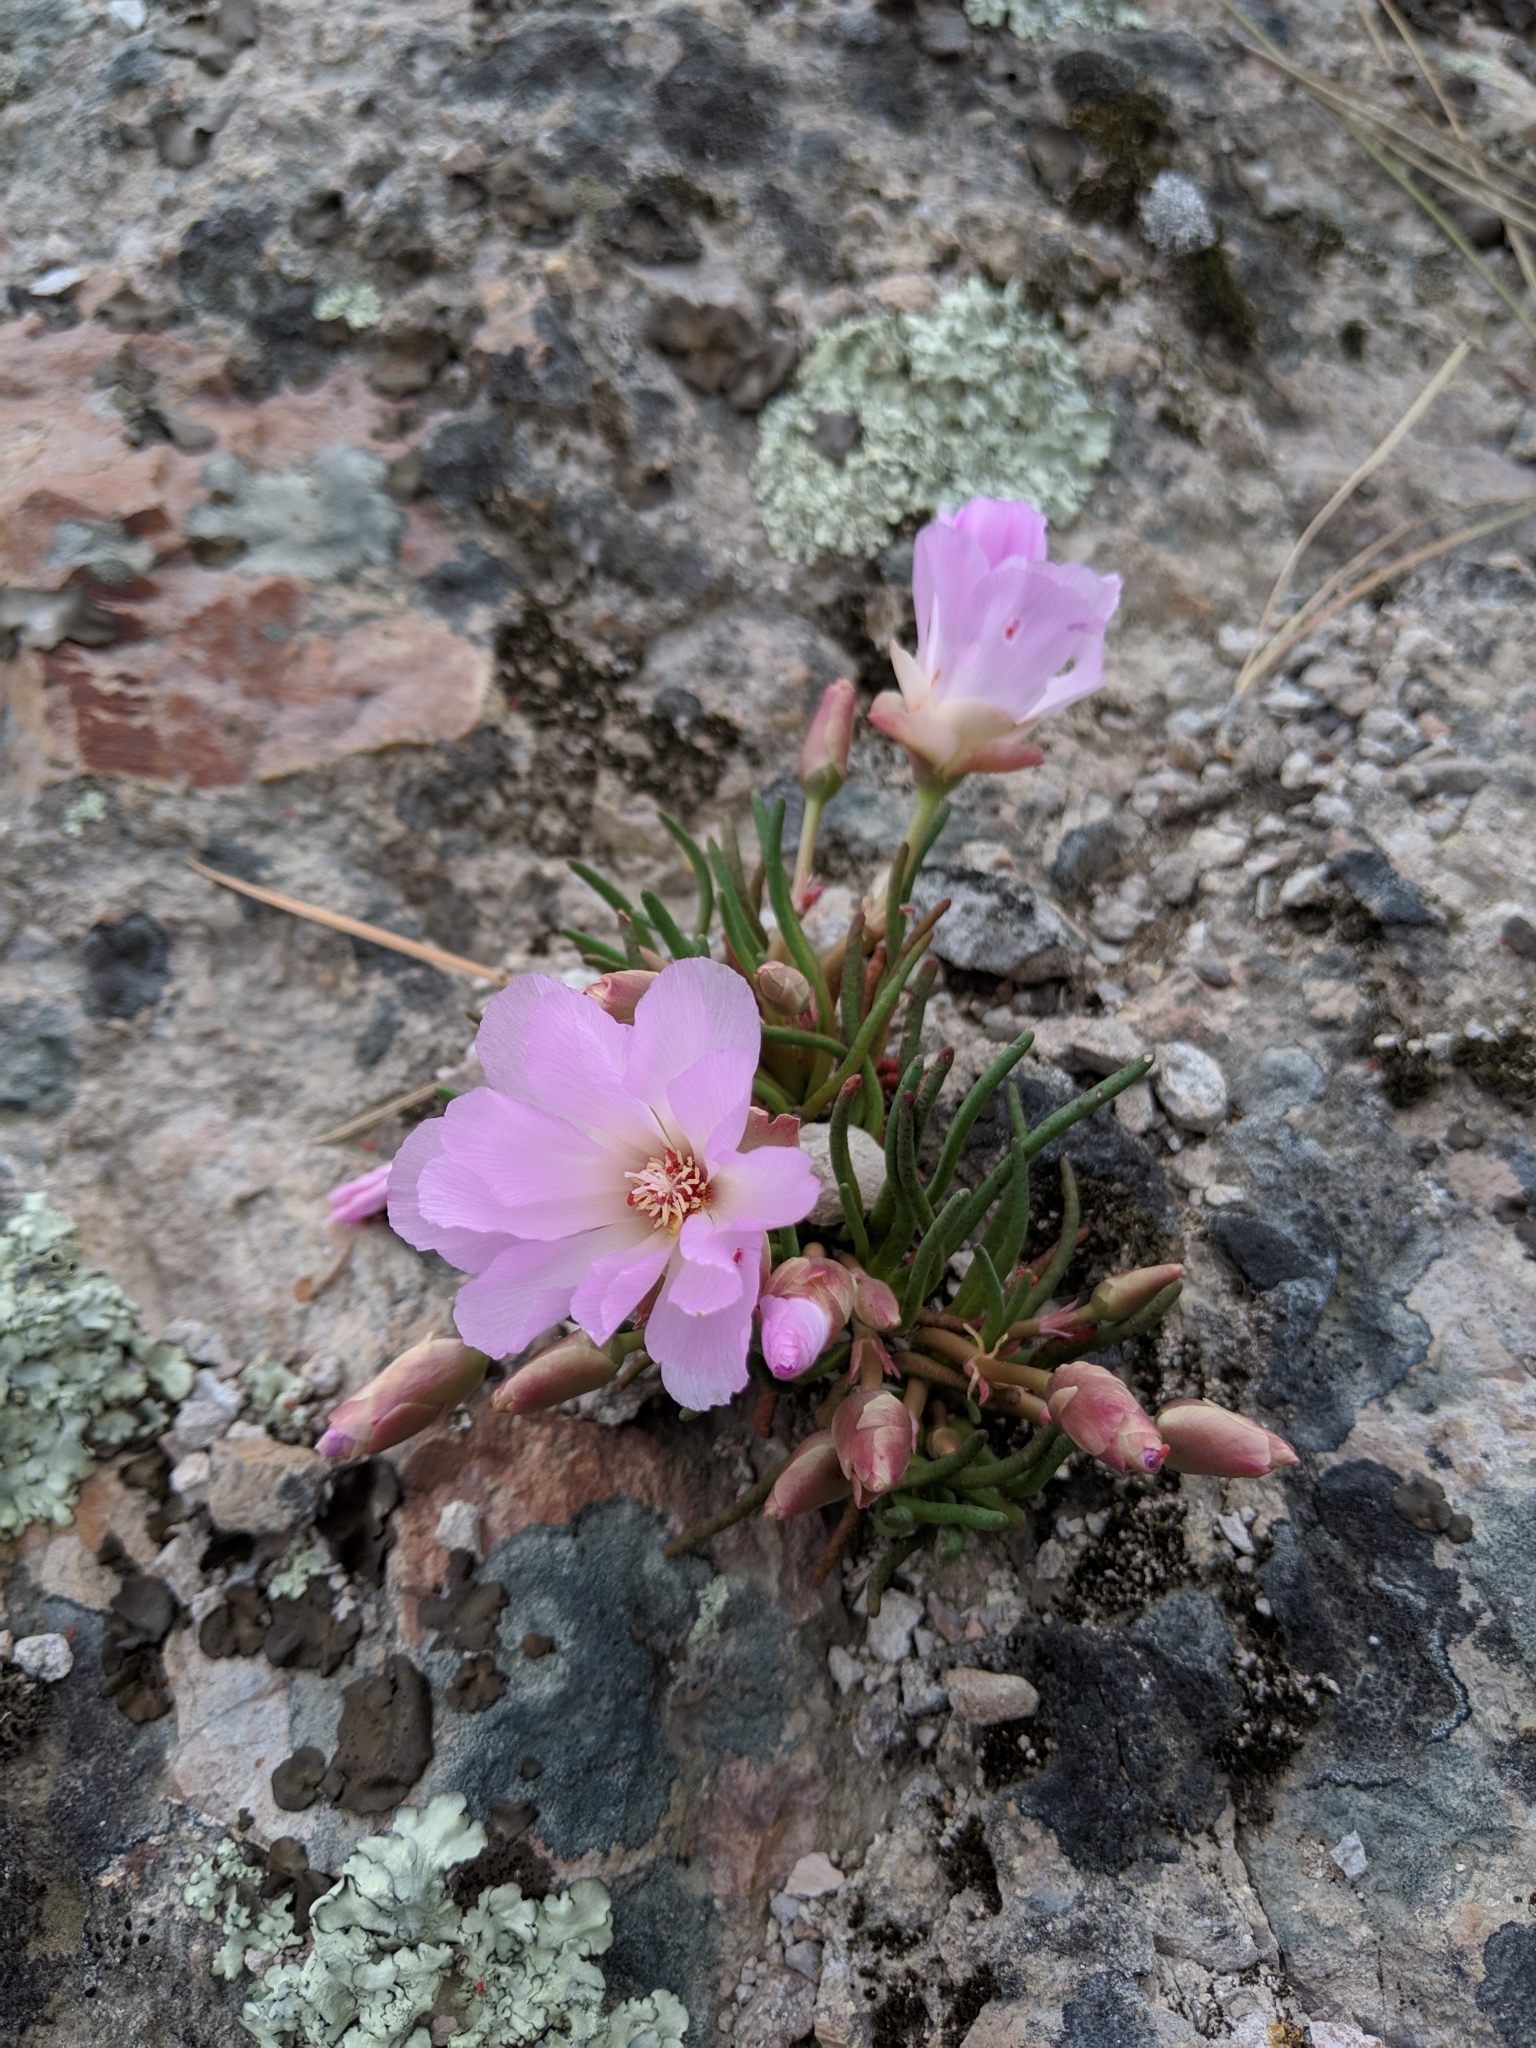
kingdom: Plantae
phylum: Tracheophyta
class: Magnoliopsida
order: Caryophyllales
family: Montiaceae
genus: Lewisia
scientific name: Lewisia rediviva
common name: Bitter-root
